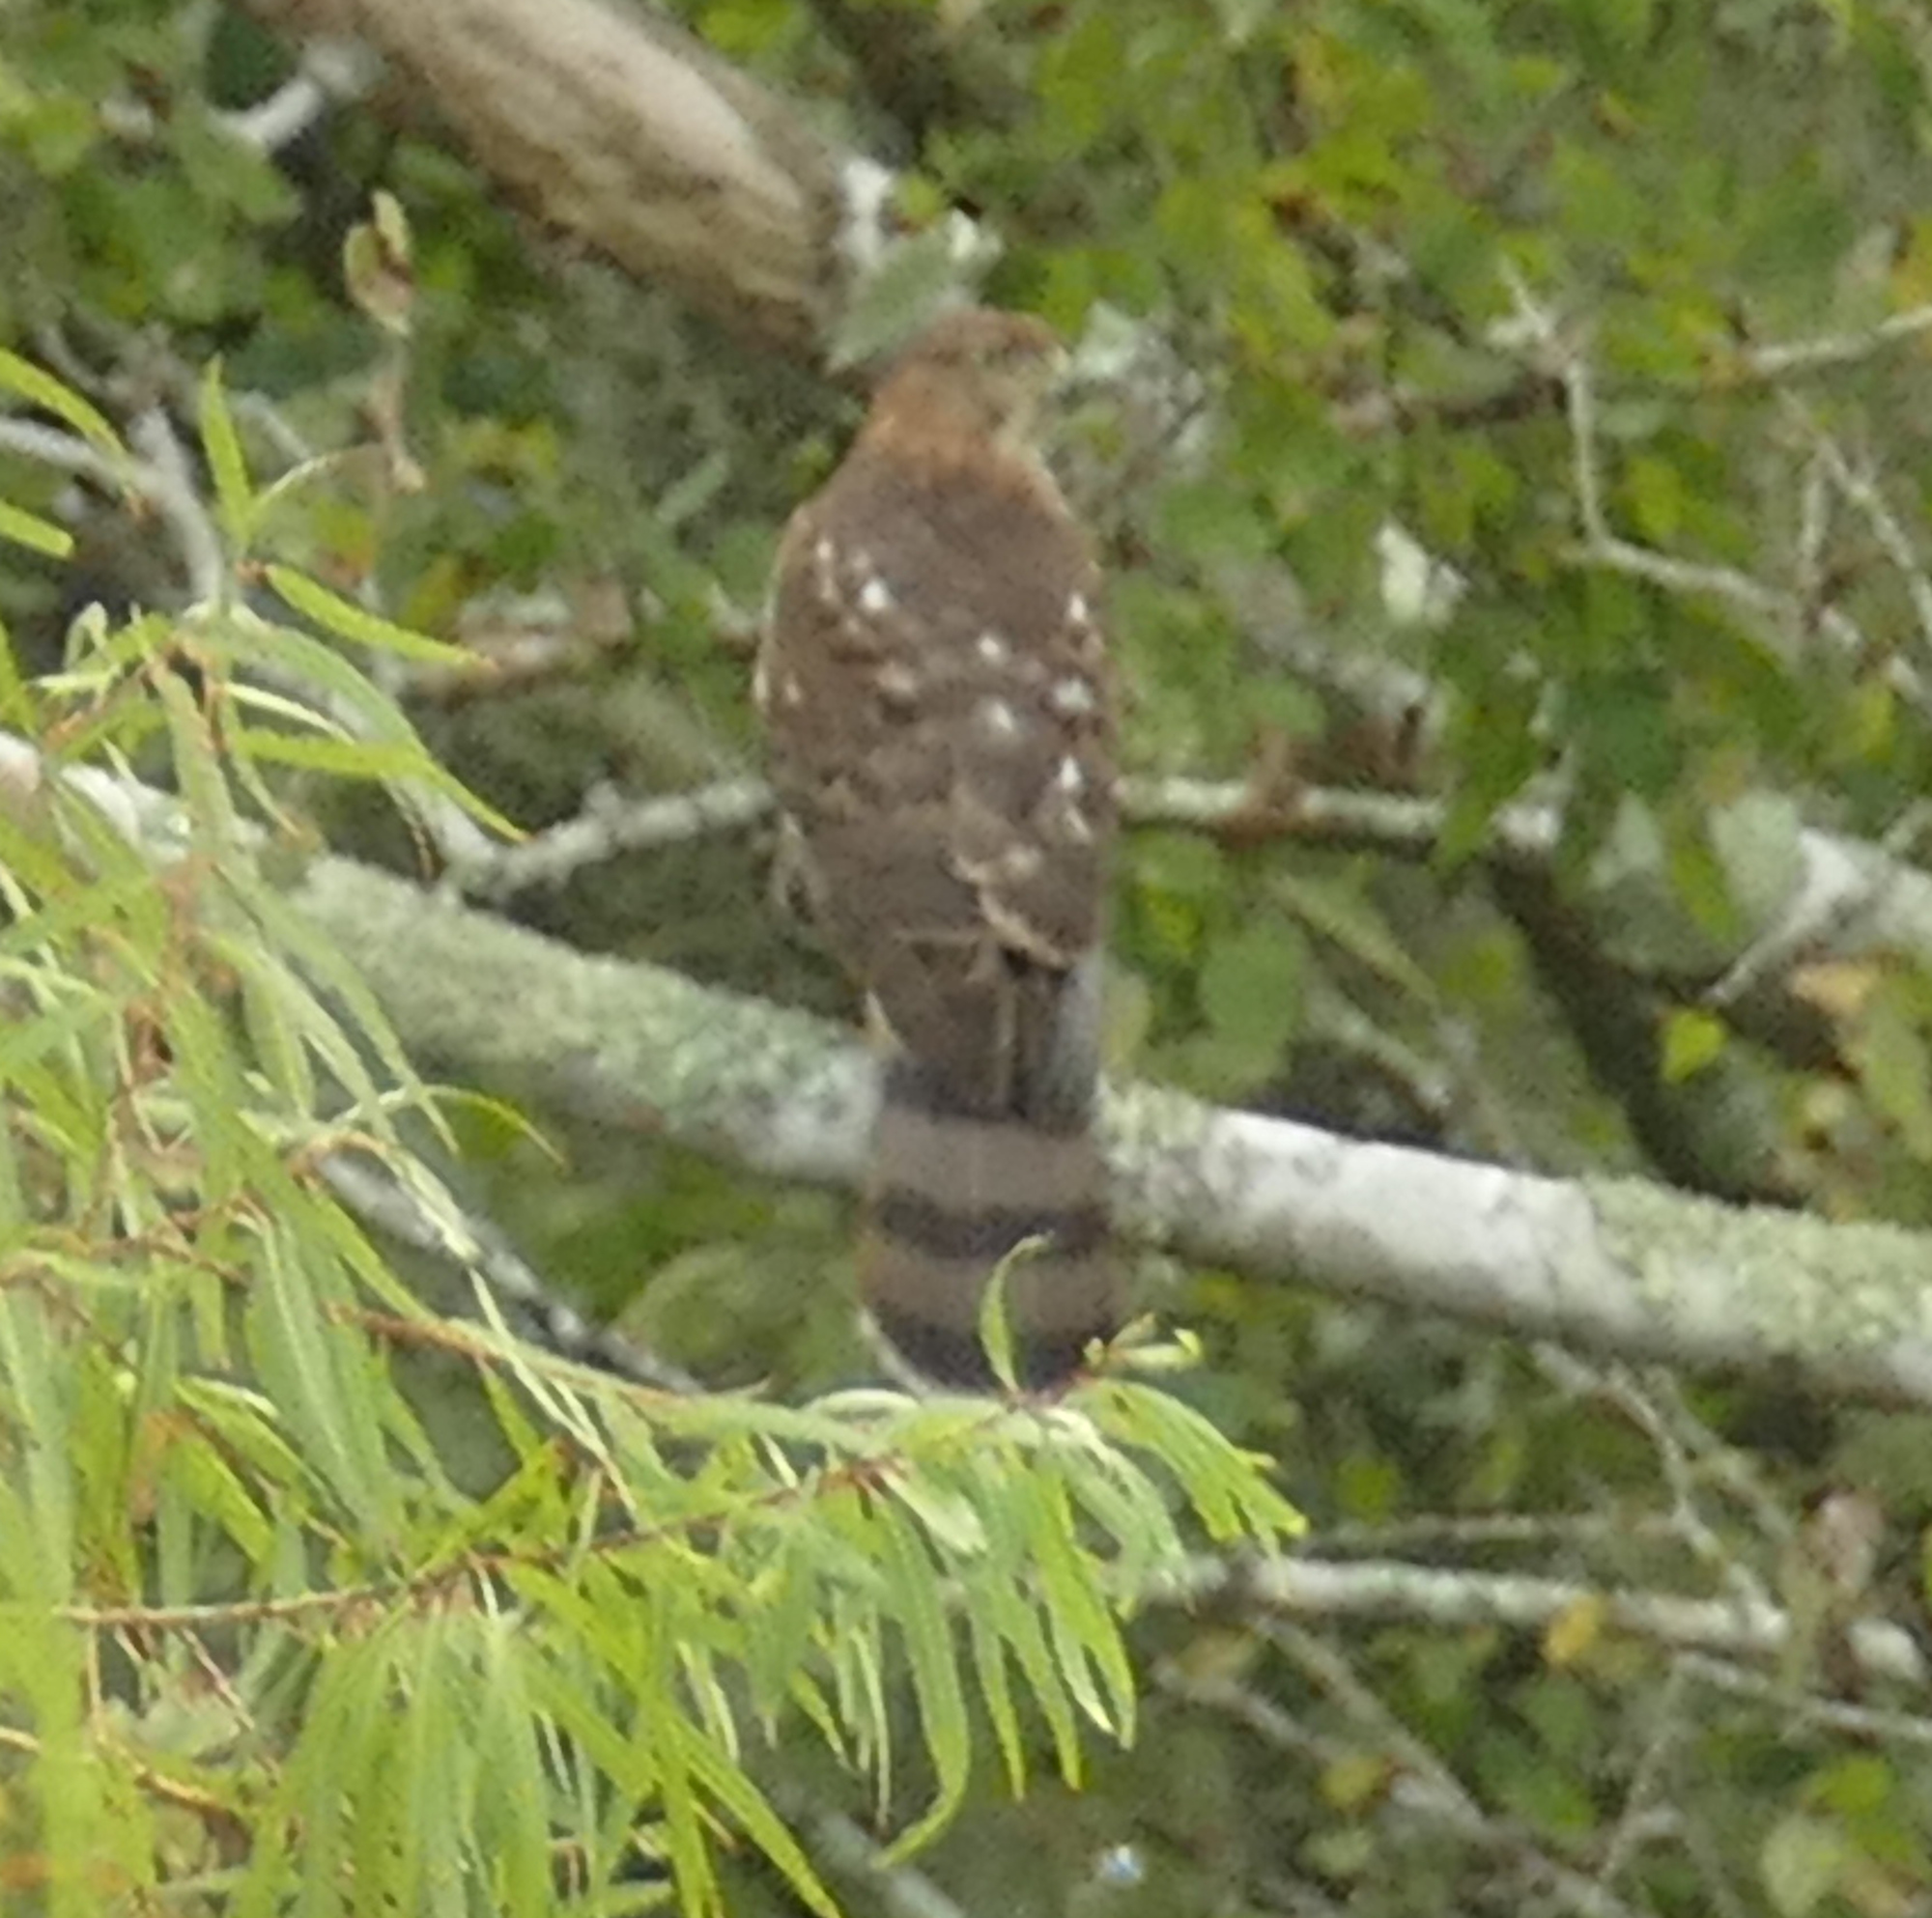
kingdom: Animalia
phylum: Chordata
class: Aves
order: Accipitriformes
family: Accipitridae
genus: Accipiter
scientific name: Accipiter cooperii
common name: Cooper's hawk
